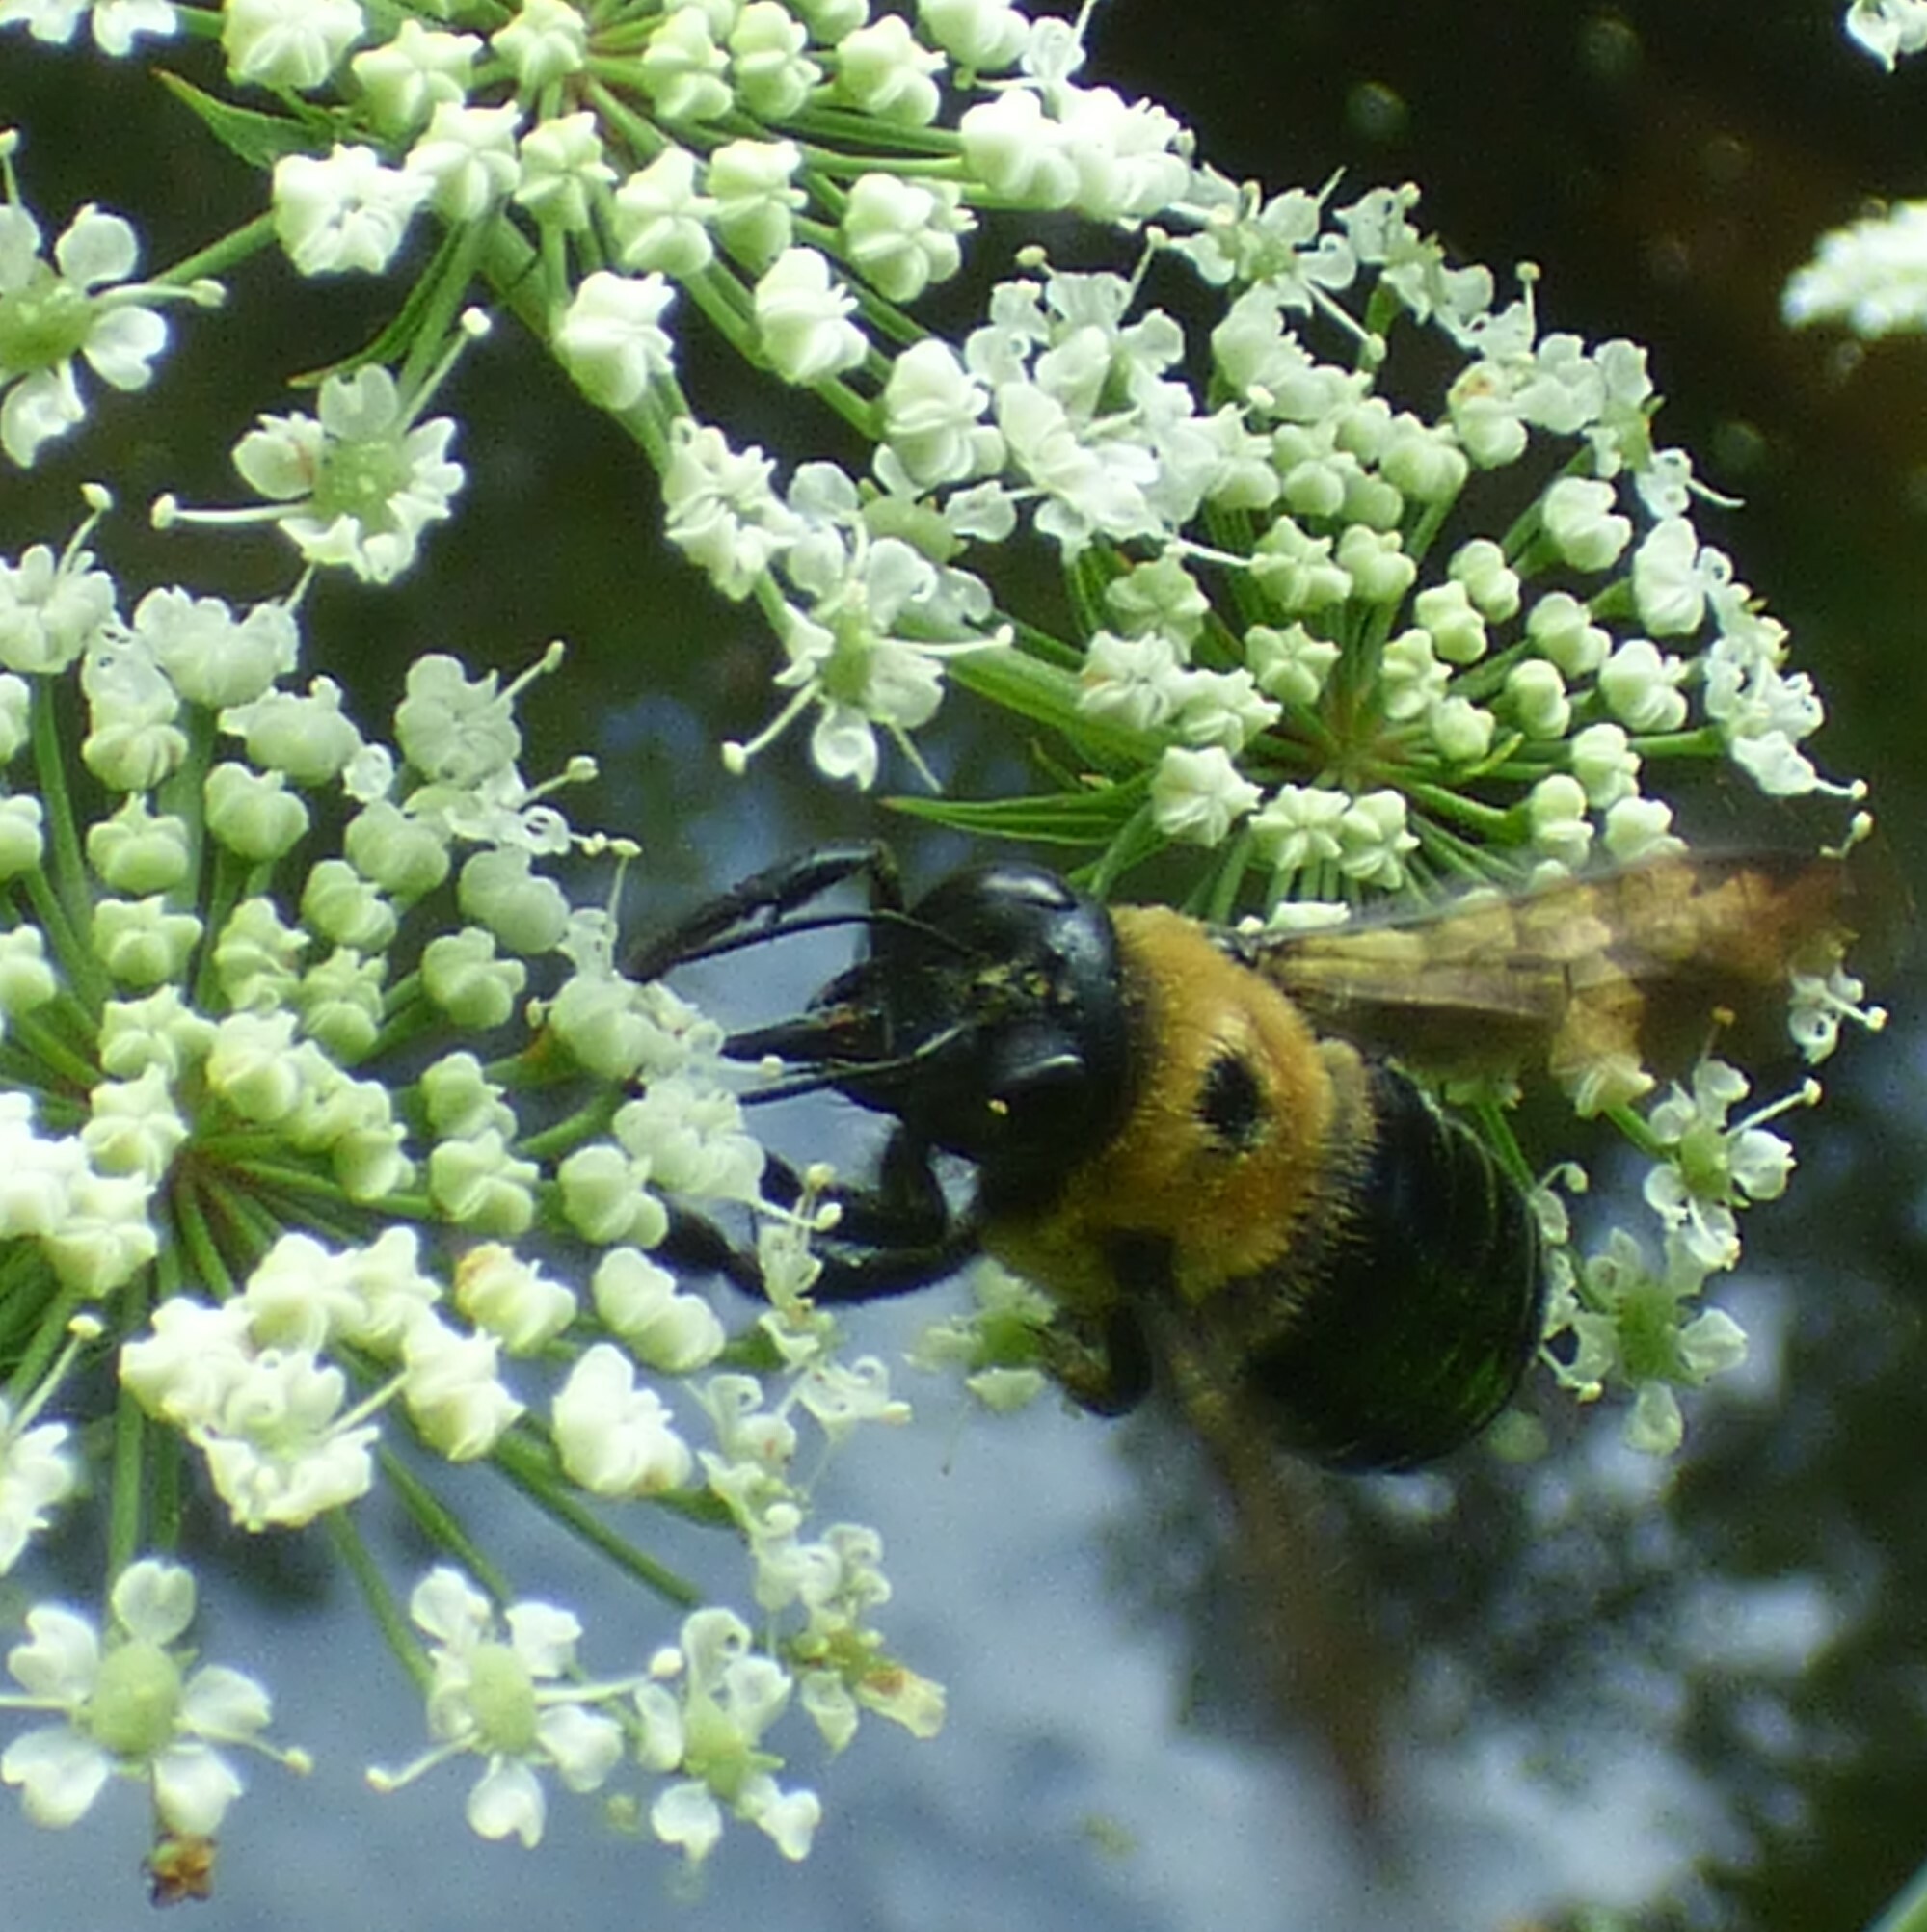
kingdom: Animalia
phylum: Arthropoda
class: Insecta
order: Hymenoptera
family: Apidae
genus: Xylocopa
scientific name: Xylocopa virginica
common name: Carpenter bee
